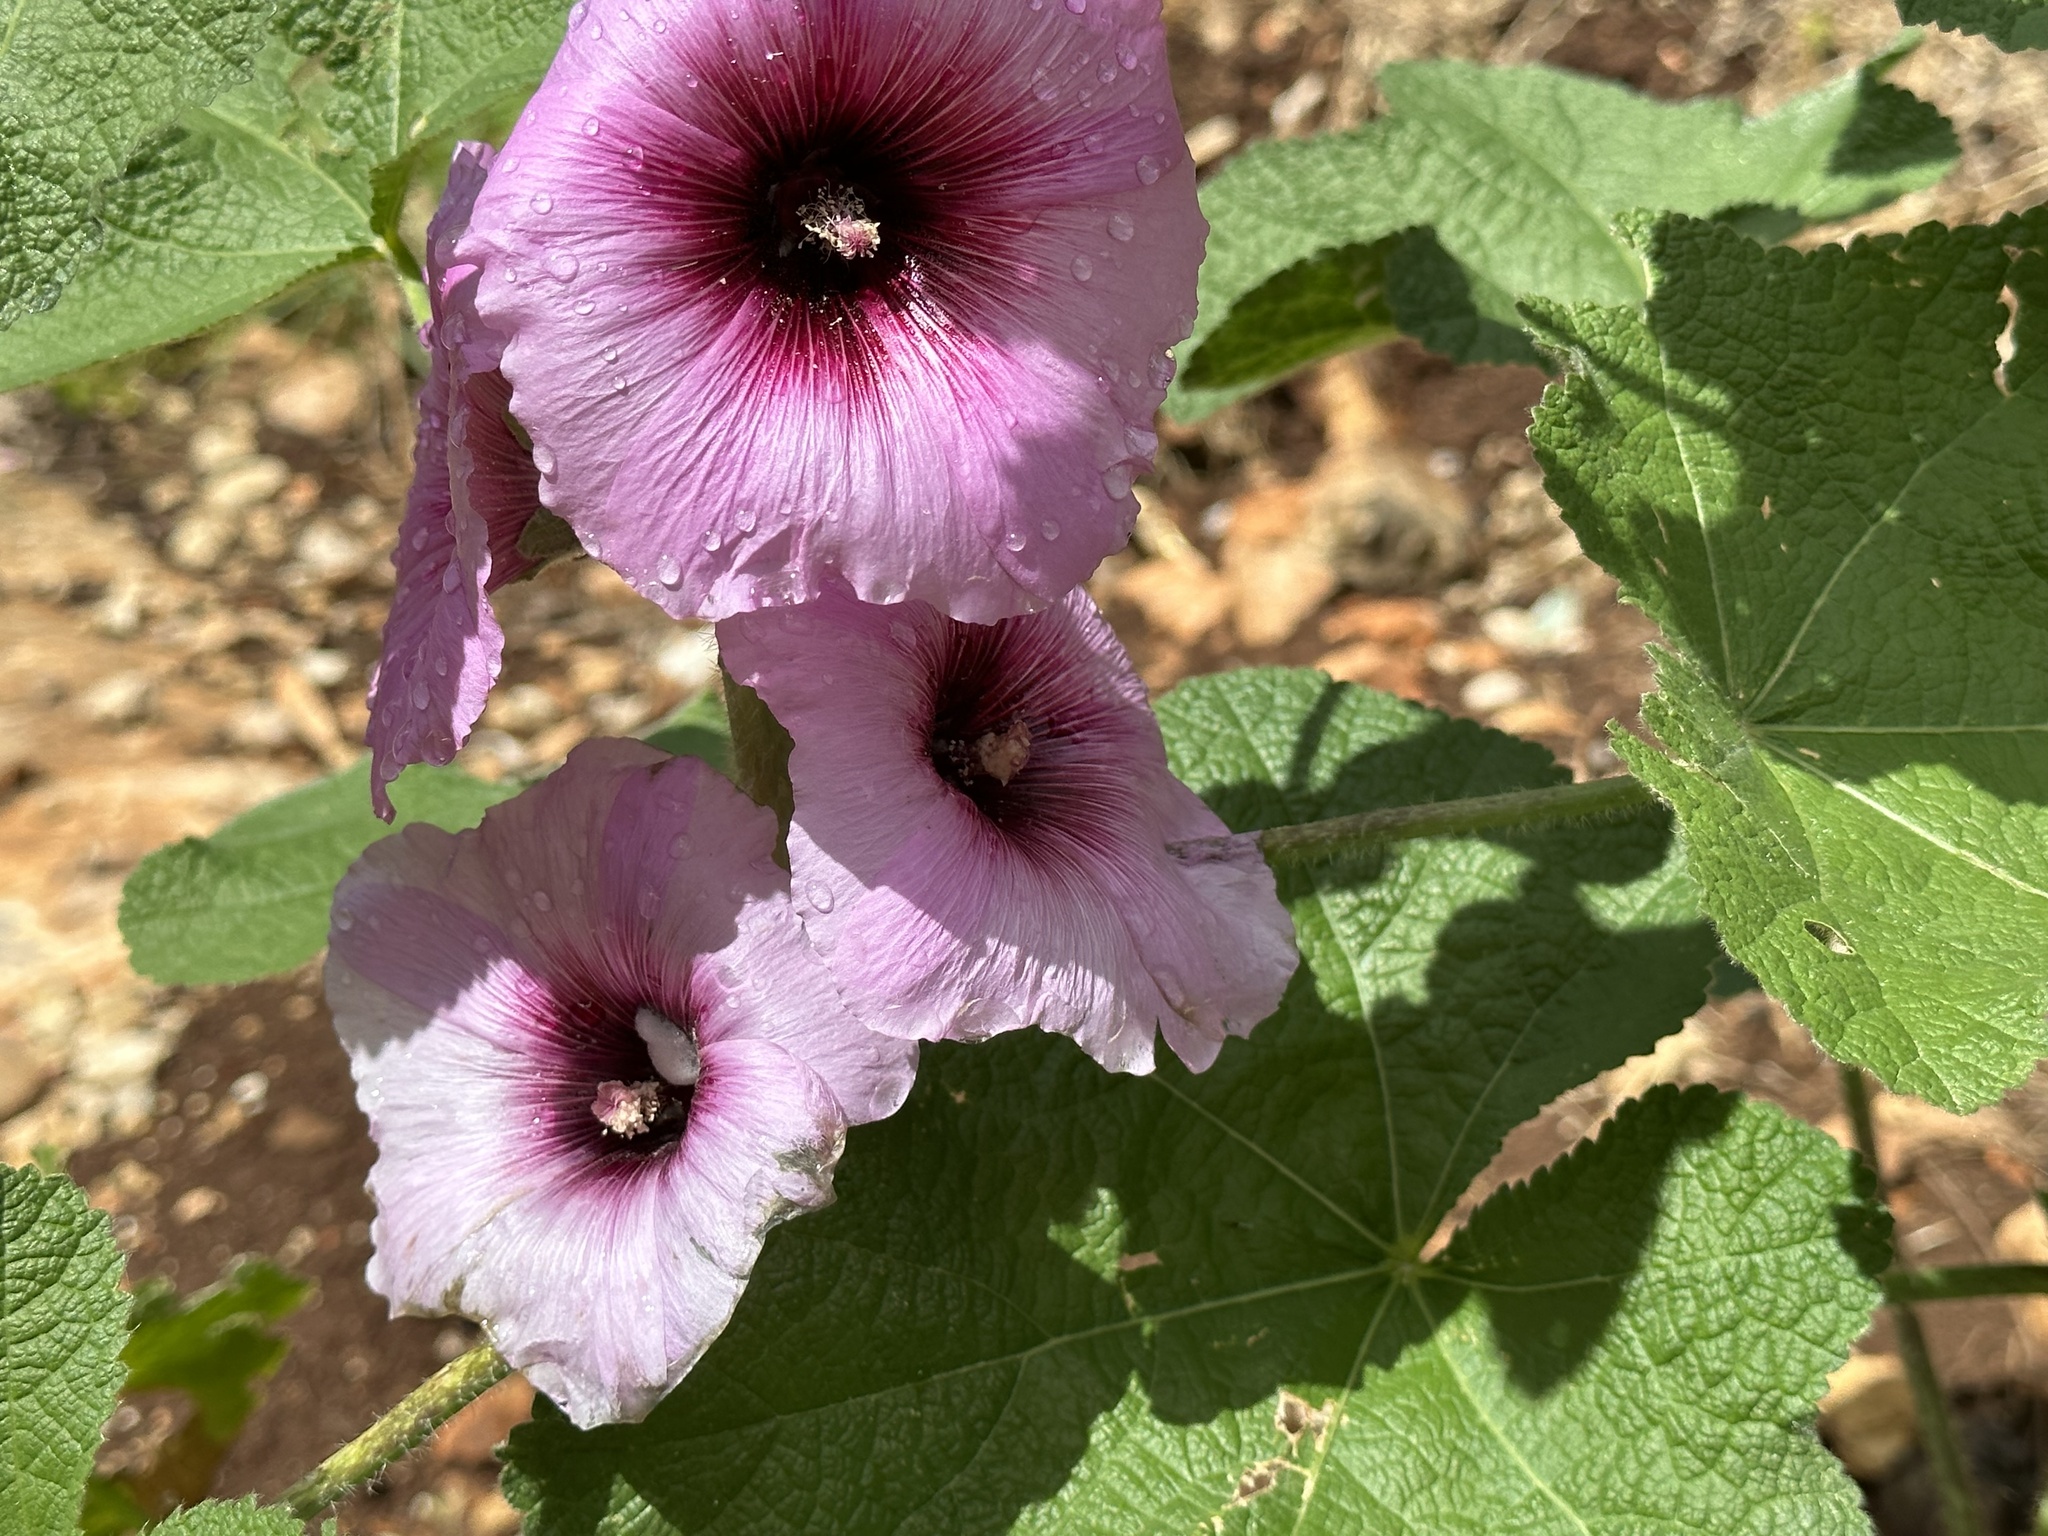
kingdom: Plantae
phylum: Tracheophyta
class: Magnoliopsida
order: Malvales
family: Malvaceae
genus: Alcea
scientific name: Alcea rosea
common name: Hollyhock
